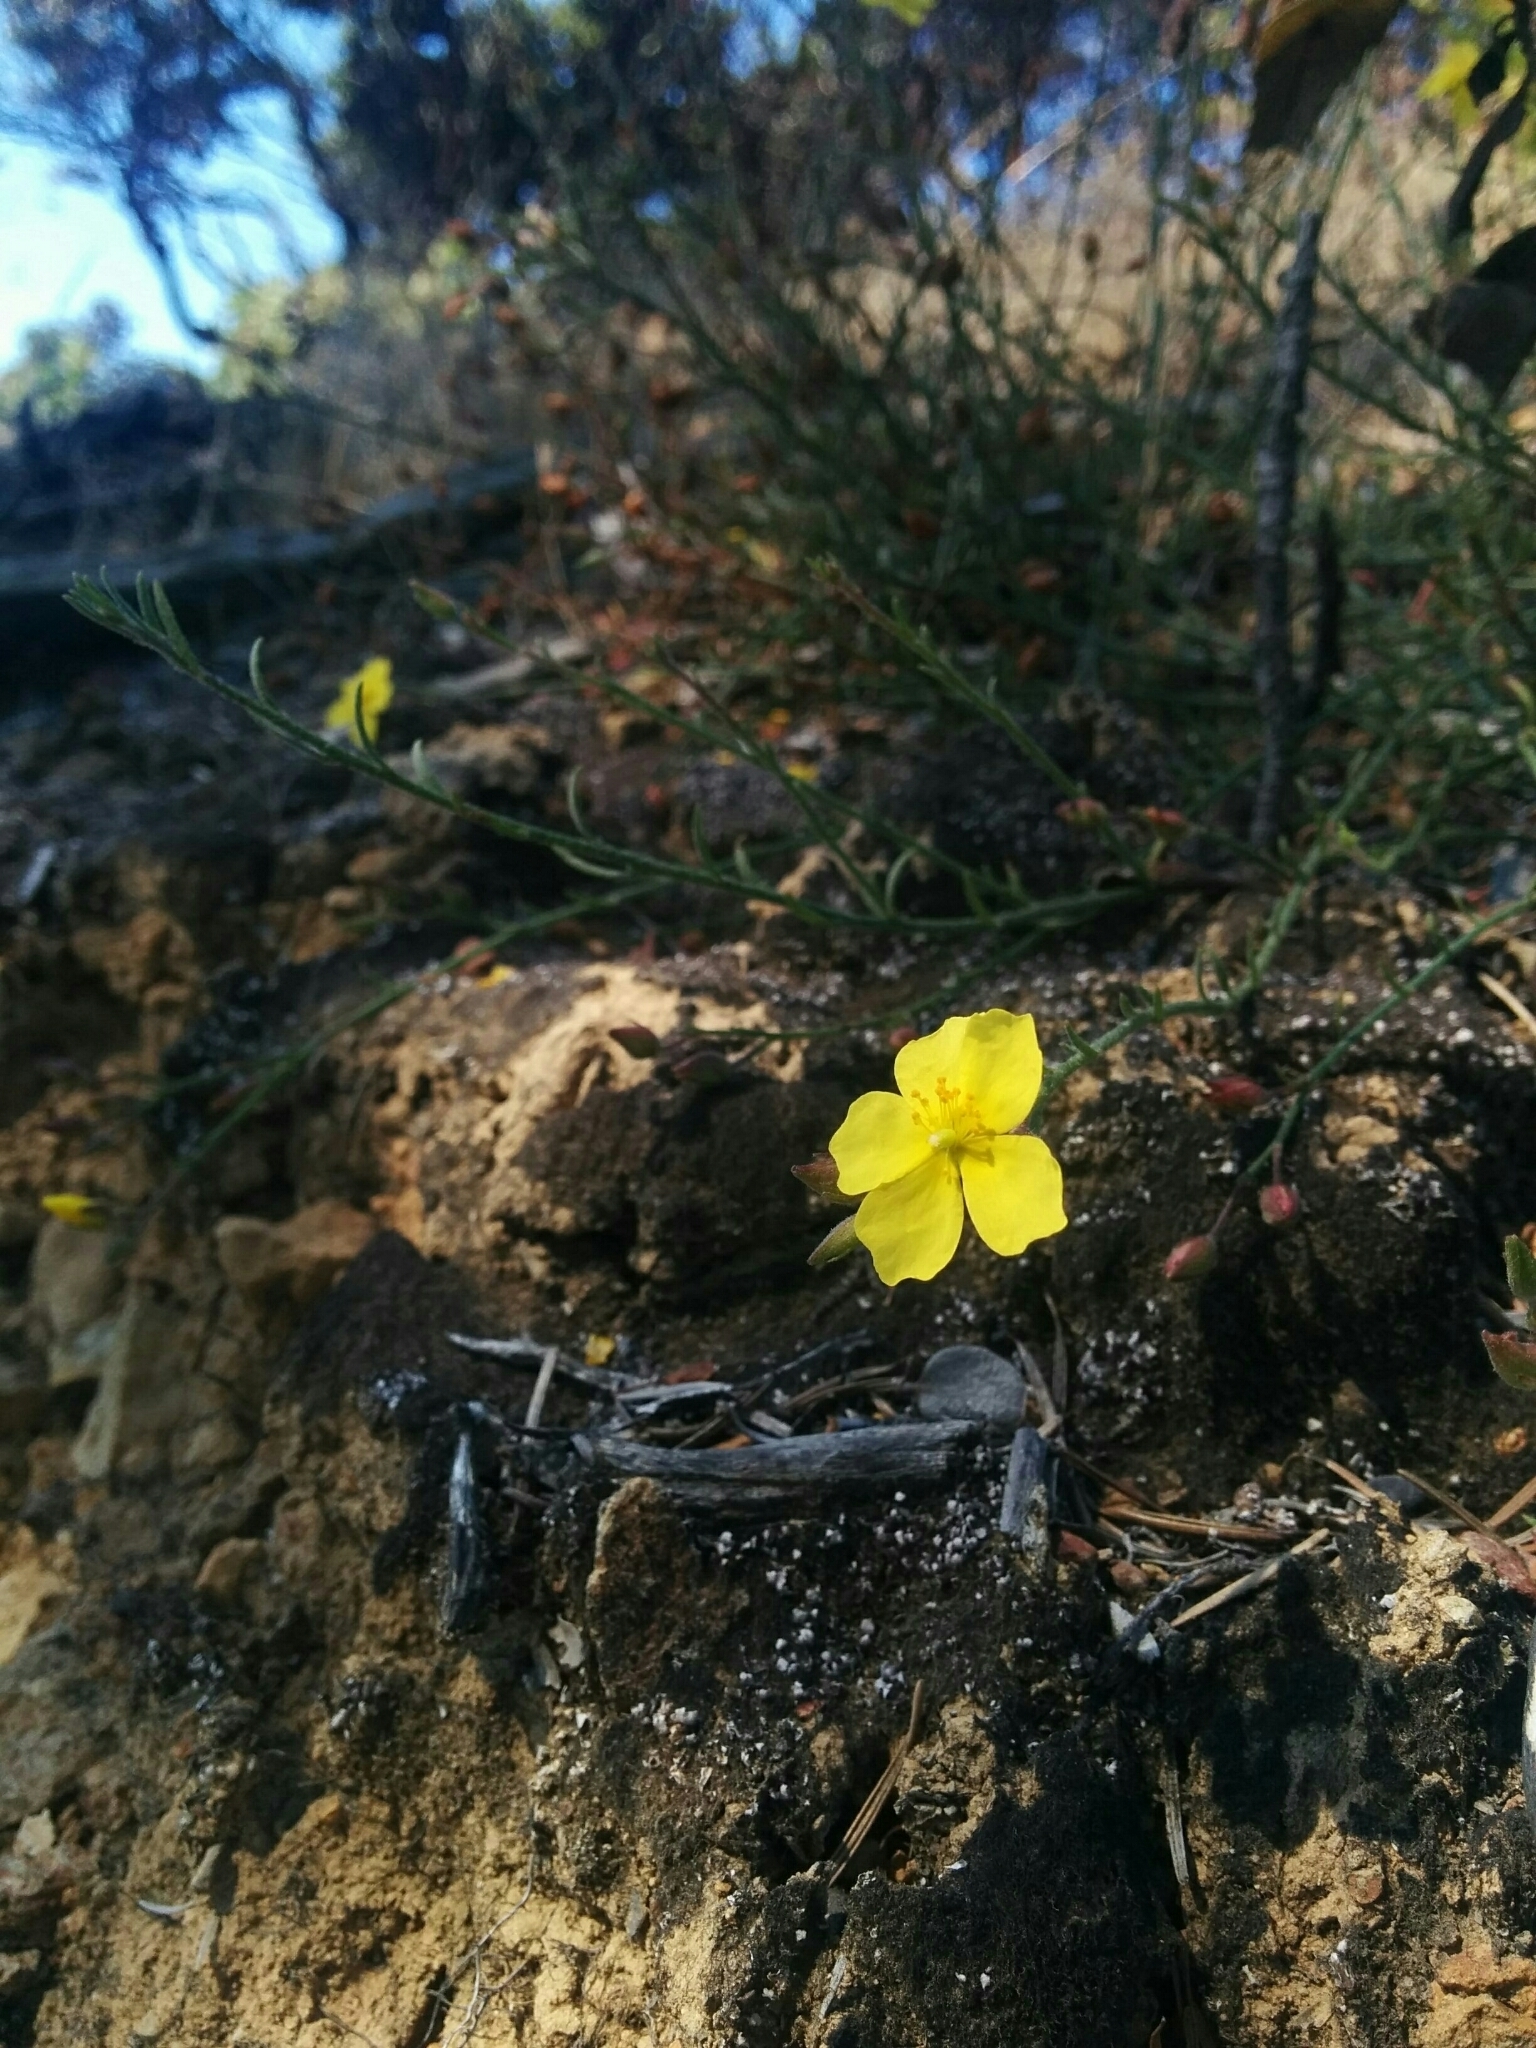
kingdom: Plantae
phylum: Tracheophyta
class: Magnoliopsida
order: Malvales
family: Cistaceae
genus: Crocanthemum
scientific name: Crocanthemum scoparium
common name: Broom-rose
